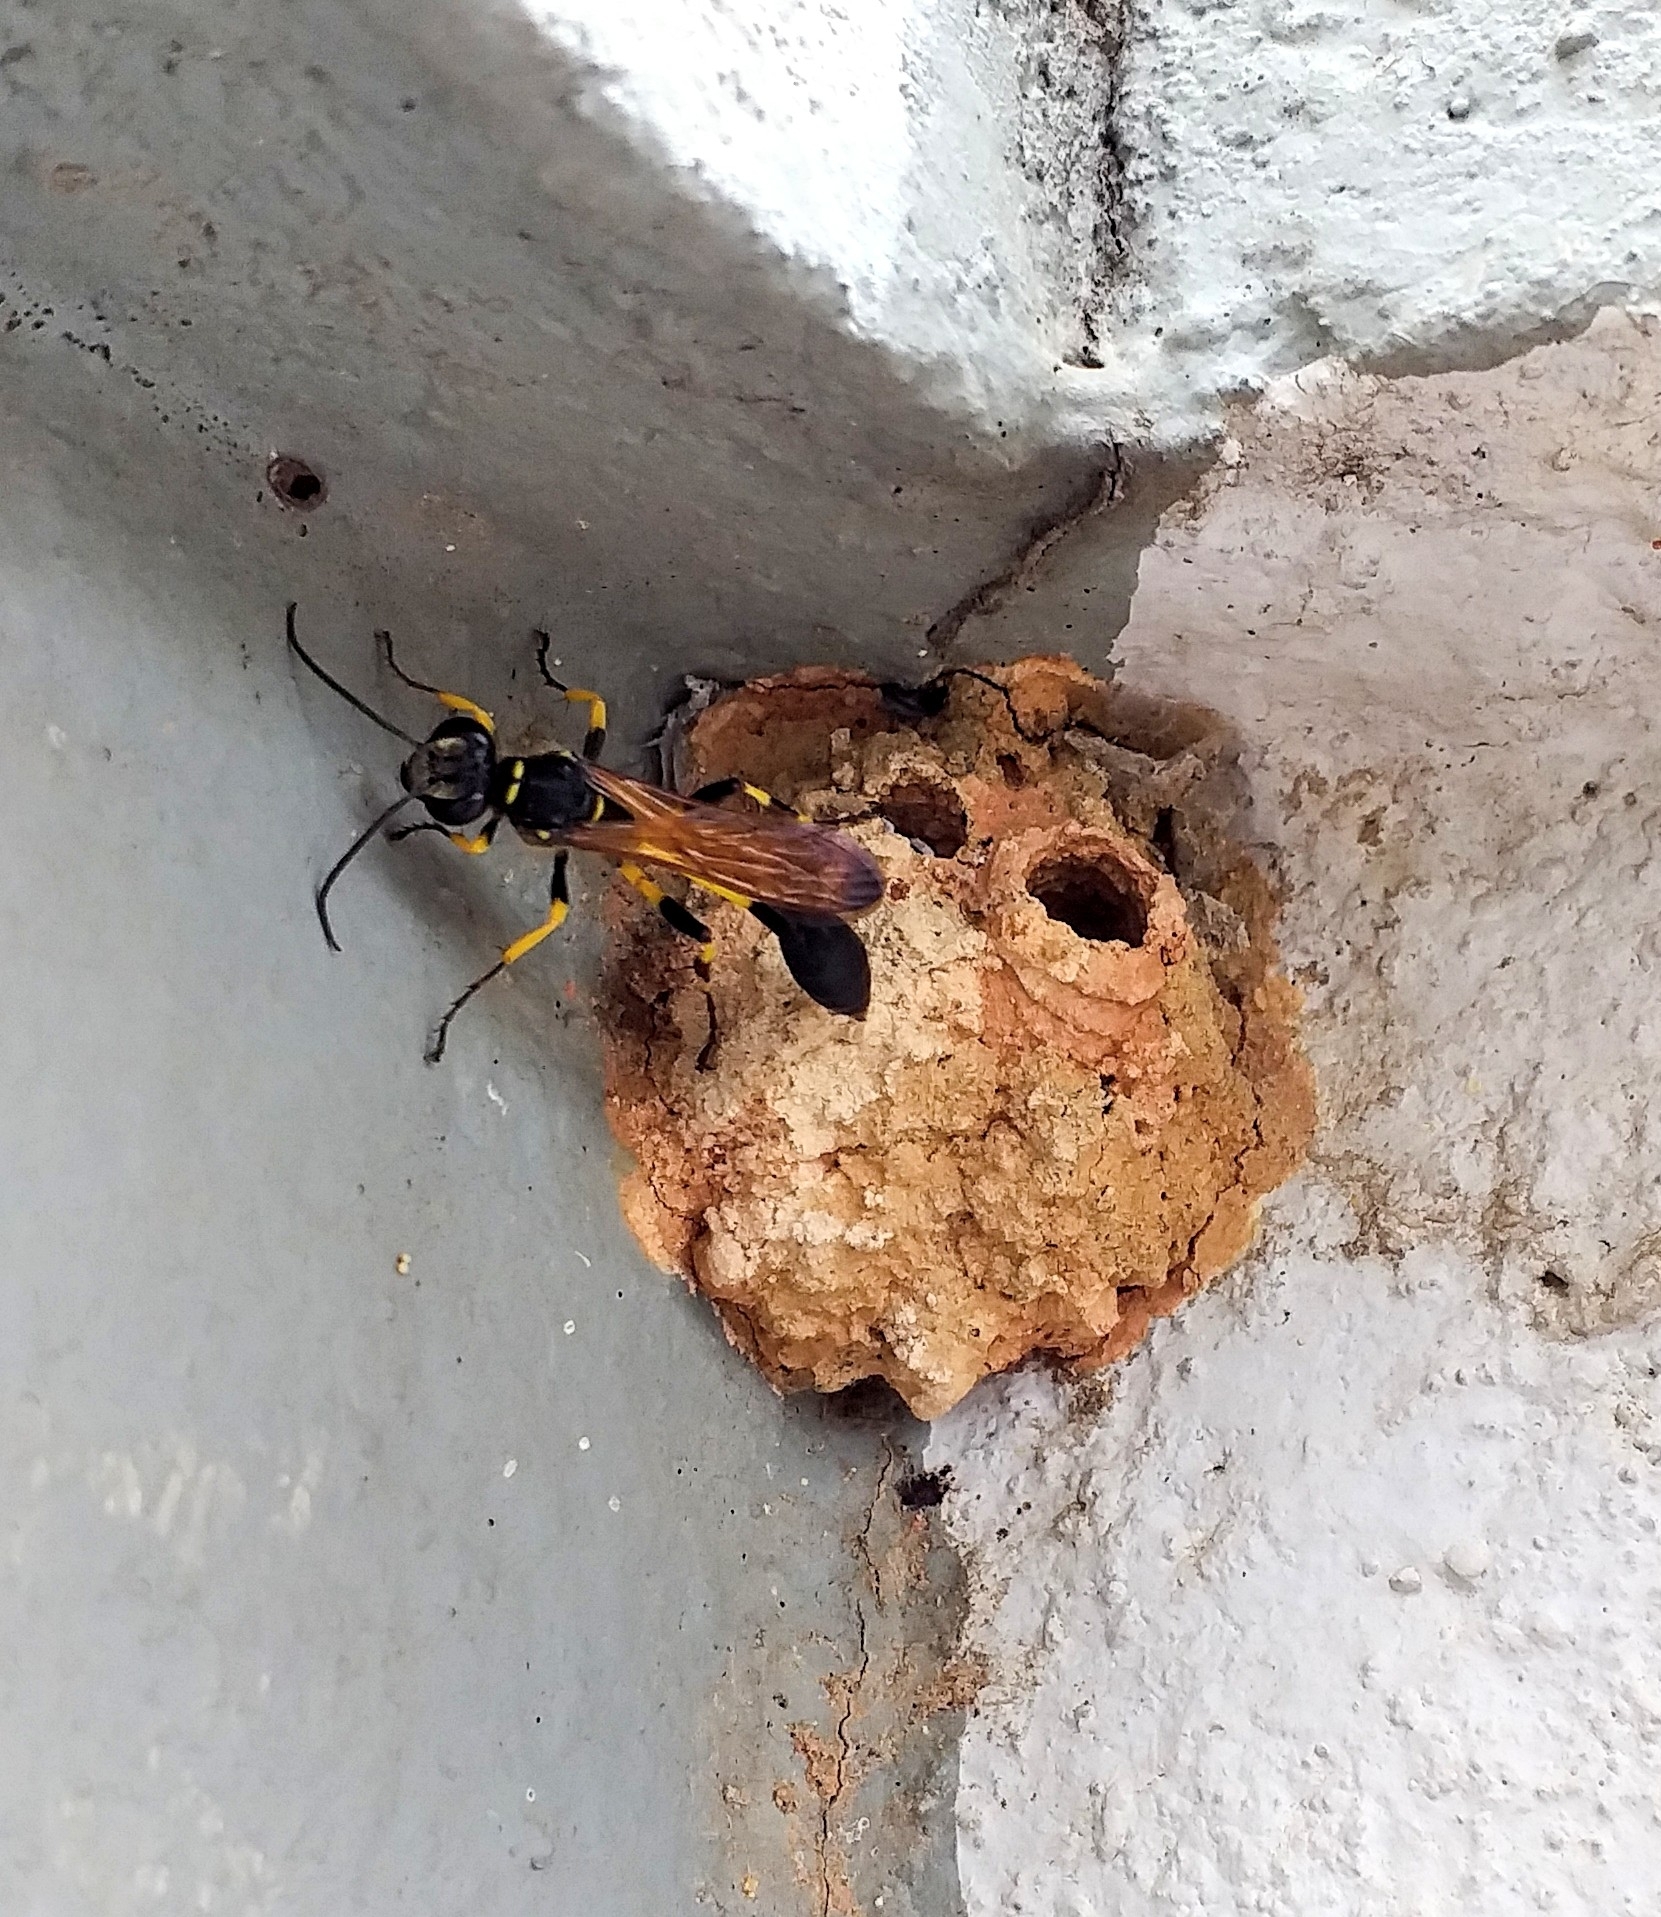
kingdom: Animalia
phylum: Arthropoda
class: Insecta
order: Hymenoptera
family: Sphecidae
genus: Sceliphron
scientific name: Sceliphron madraspatanum
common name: Mud dauber
